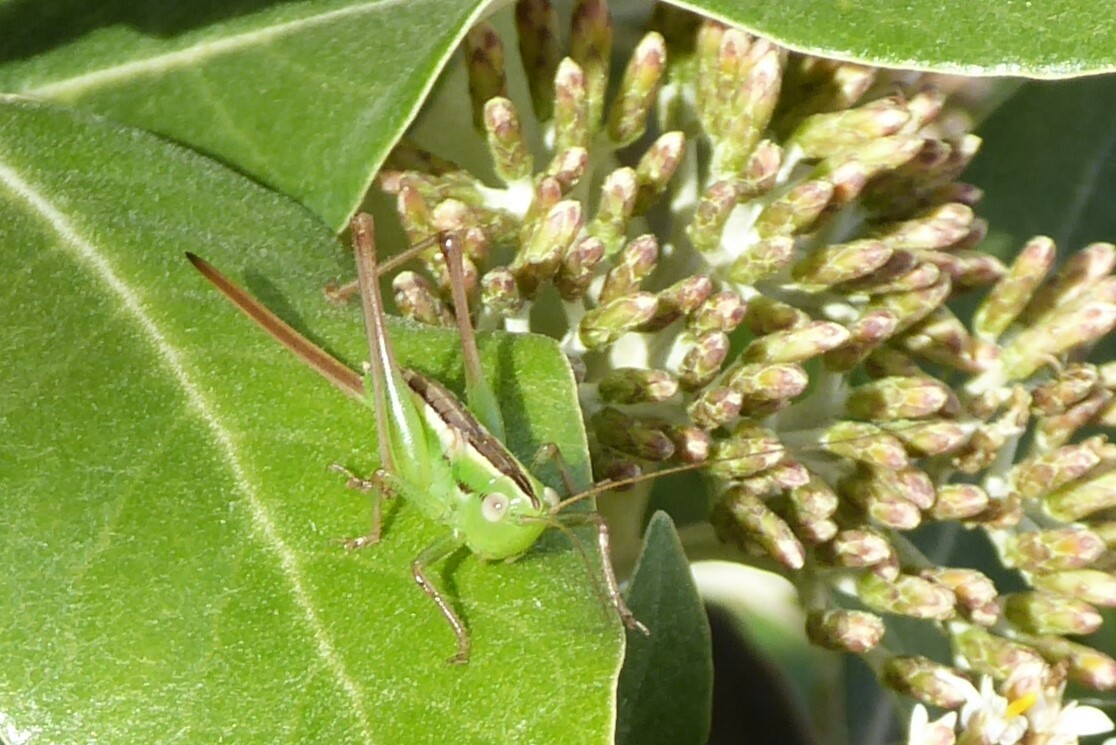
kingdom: Animalia
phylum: Arthropoda
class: Insecta
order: Orthoptera
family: Tettigoniidae
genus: Conocephalus
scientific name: Conocephalus bilineatus
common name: Small meadow katydid
